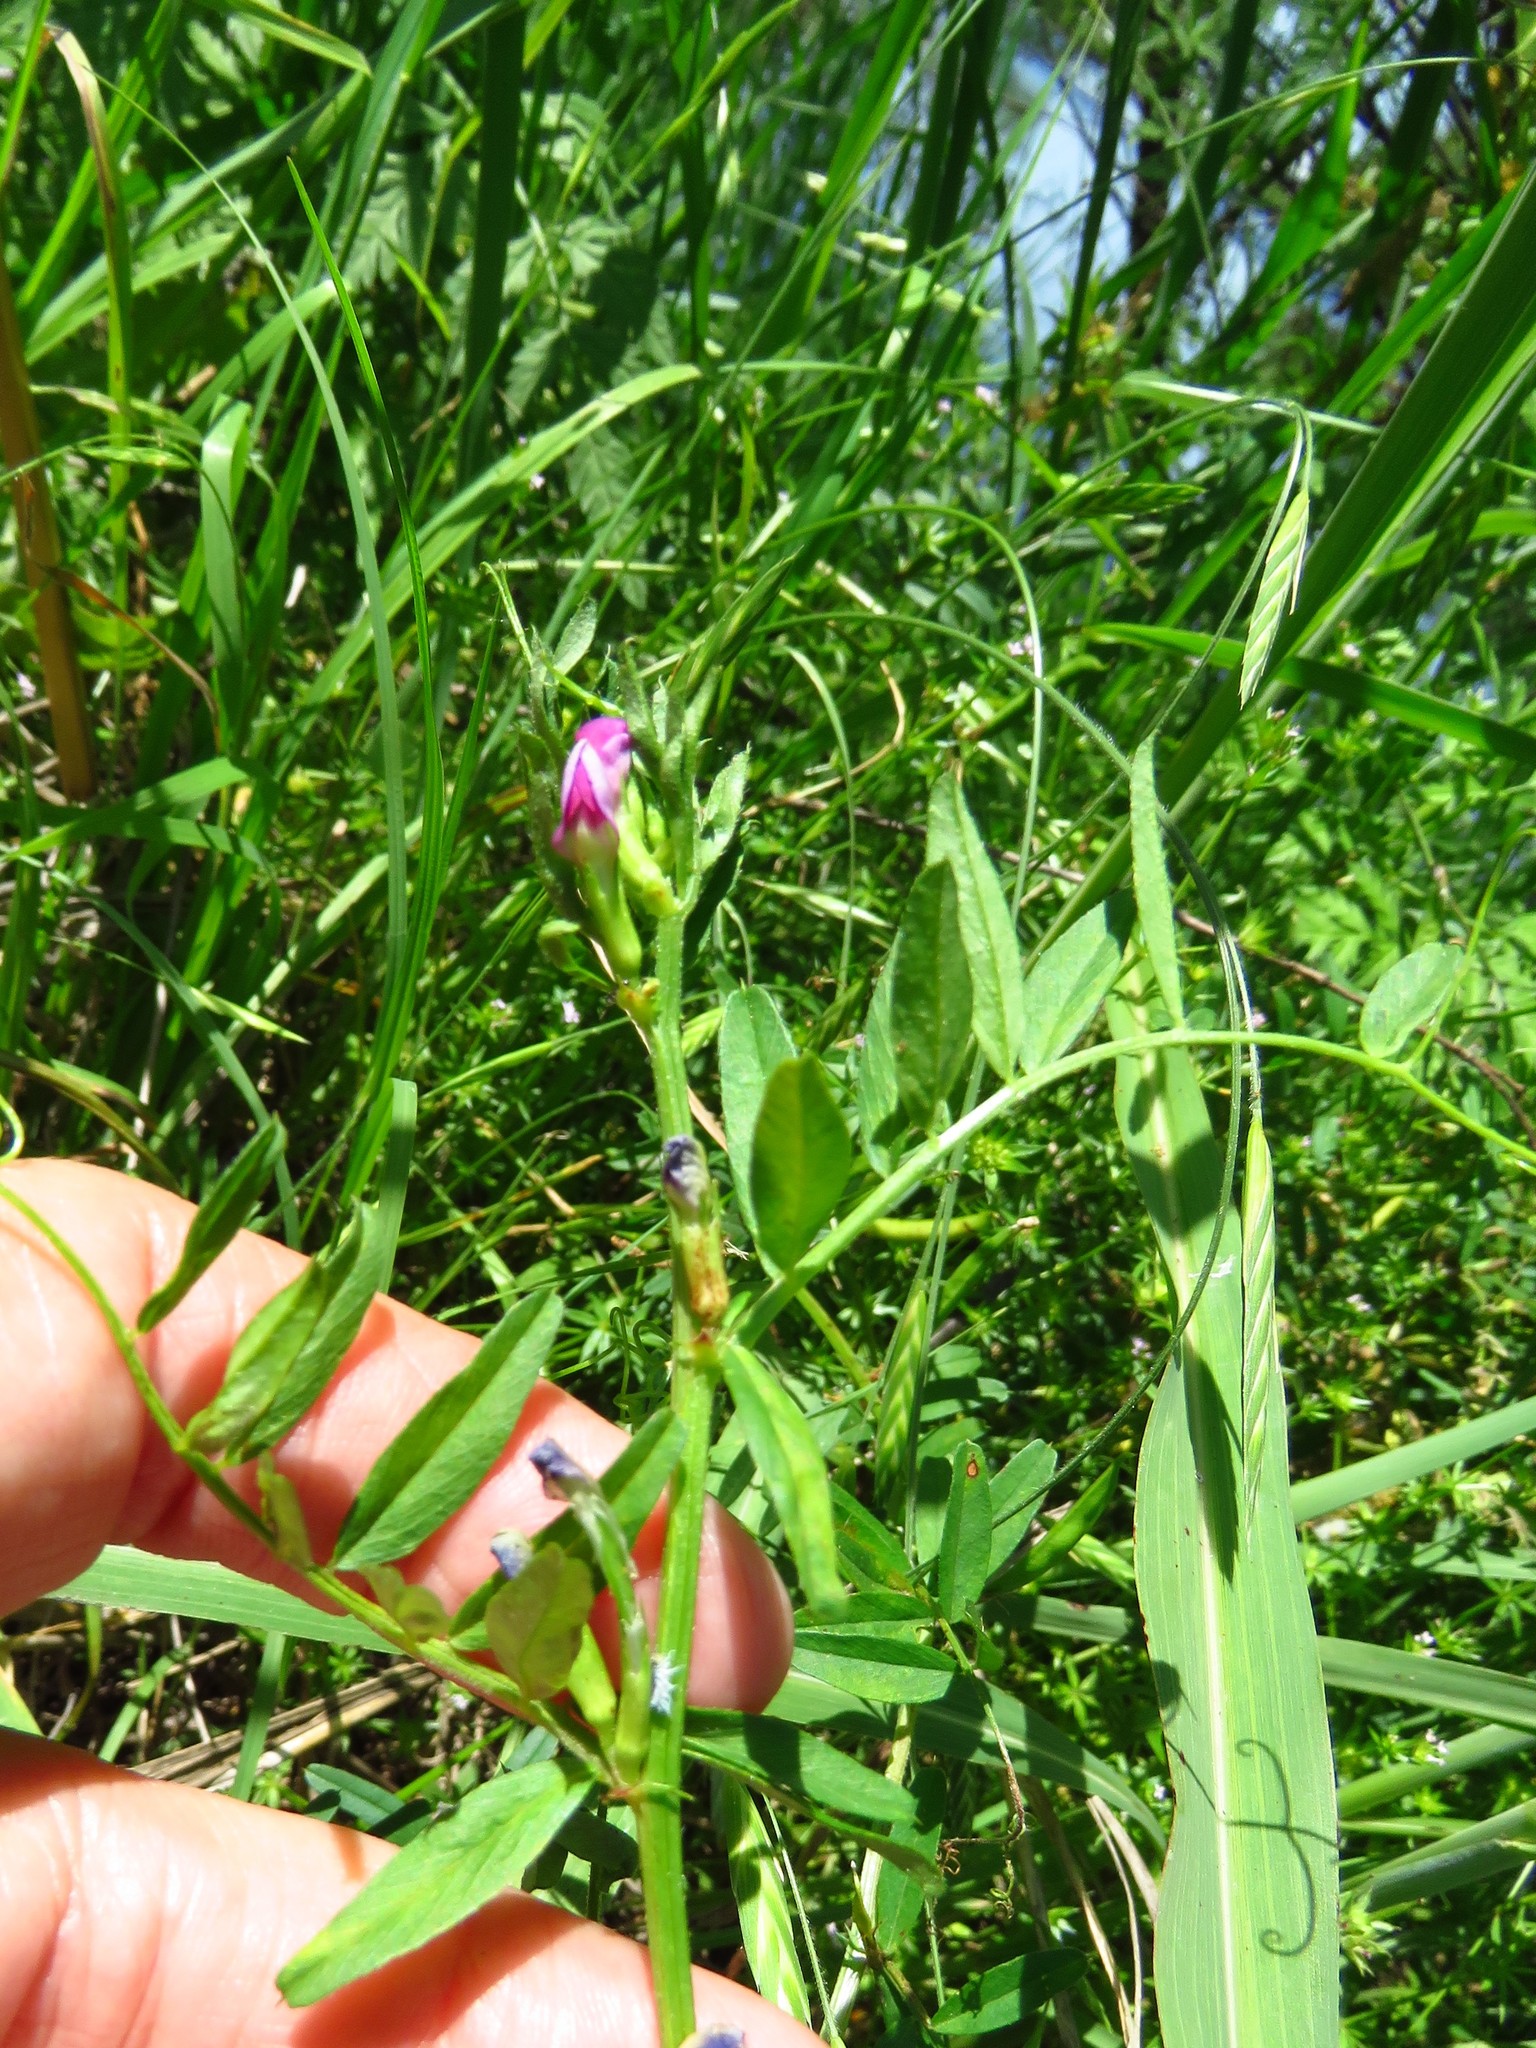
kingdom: Plantae
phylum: Tracheophyta
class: Magnoliopsida
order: Fabales
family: Fabaceae
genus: Vicia
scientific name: Vicia sativa
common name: Garden vetch
